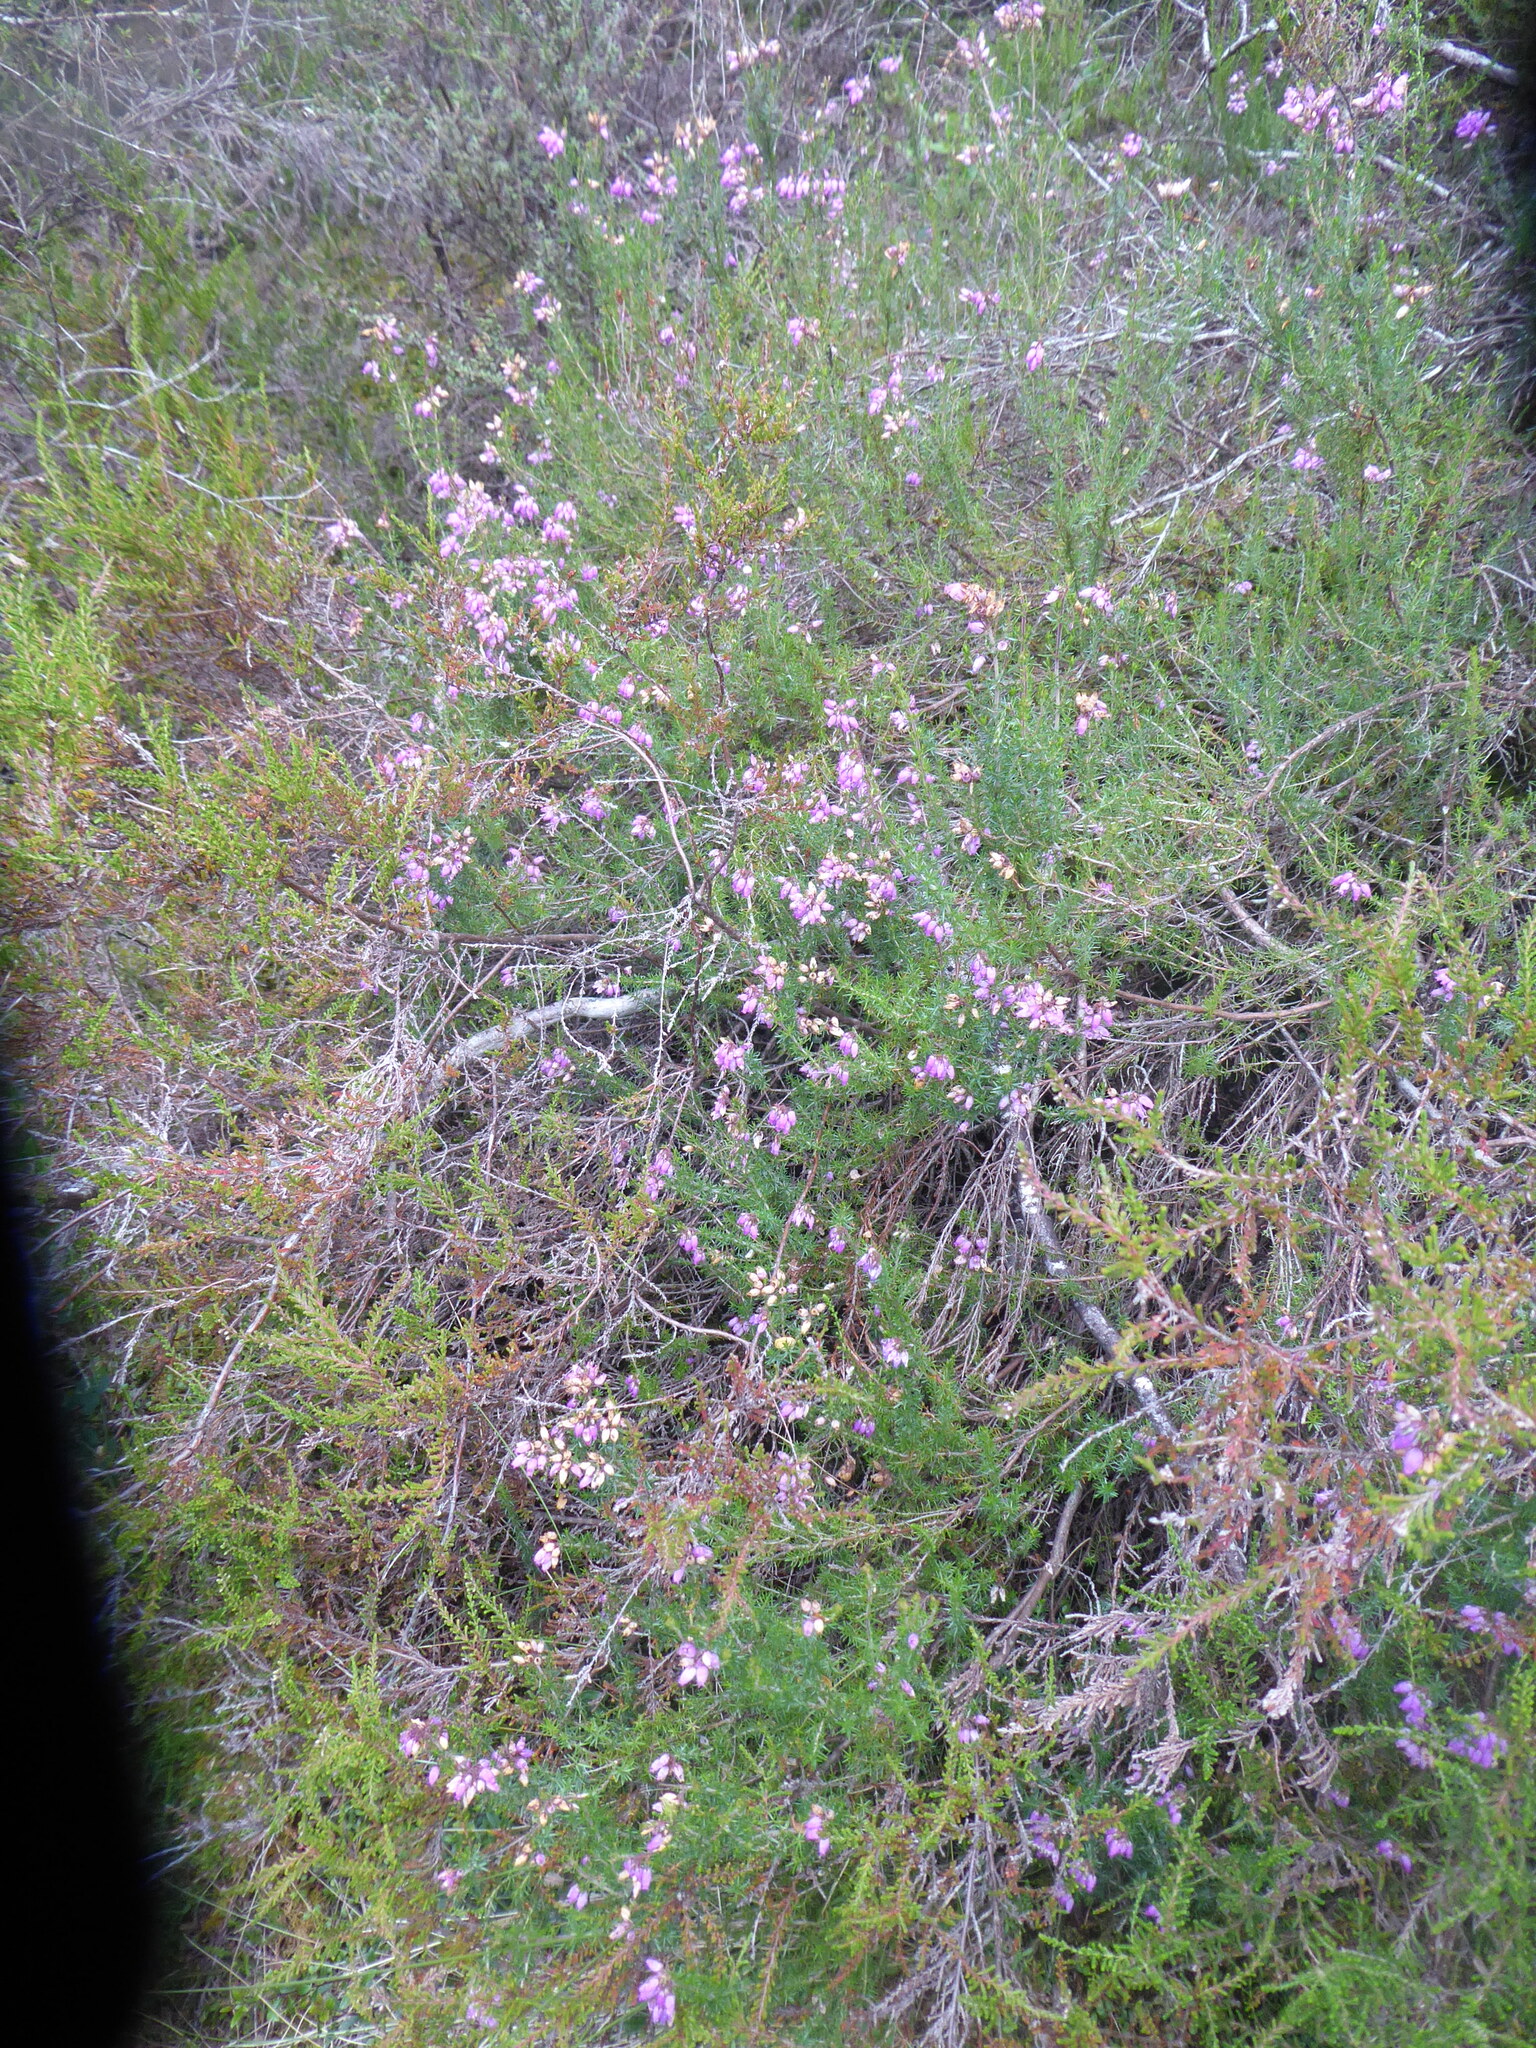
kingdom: Plantae
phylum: Tracheophyta
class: Magnoliopsida
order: Ericales
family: Ericaceae
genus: Erica
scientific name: Erica cinerea
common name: Bell heather
